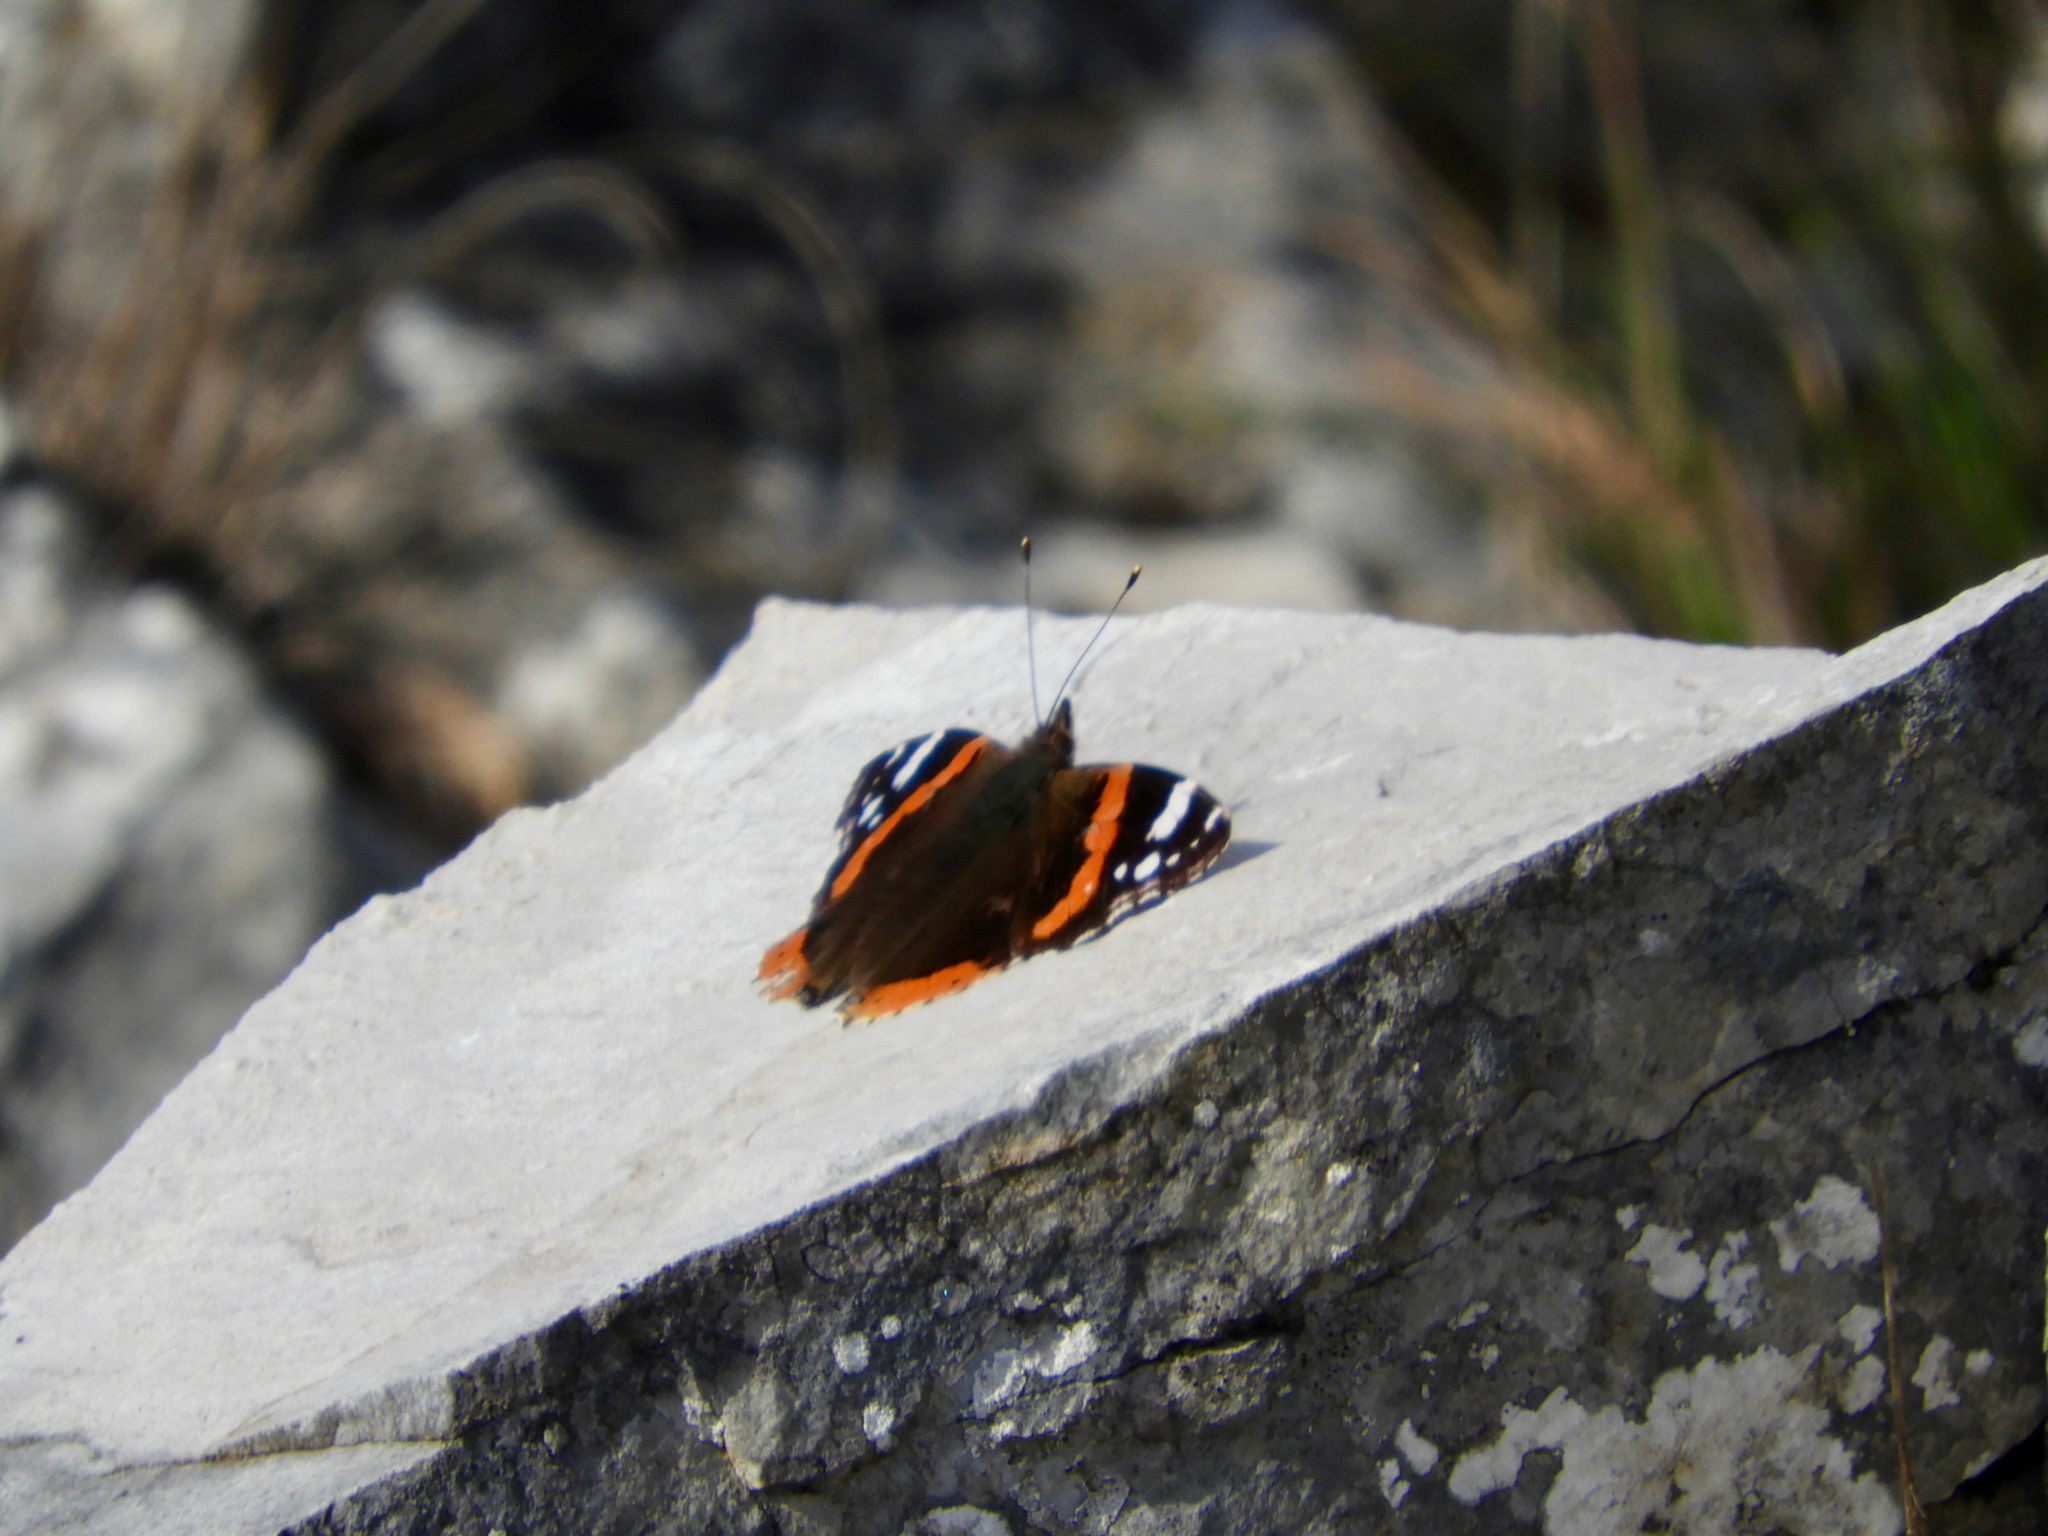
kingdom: Animalia
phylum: Arthropoda
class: Insecta
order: Lepidoptera
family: Nymphalidae
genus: Vanessa
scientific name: Vanessa atalanta
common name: Red admiral
